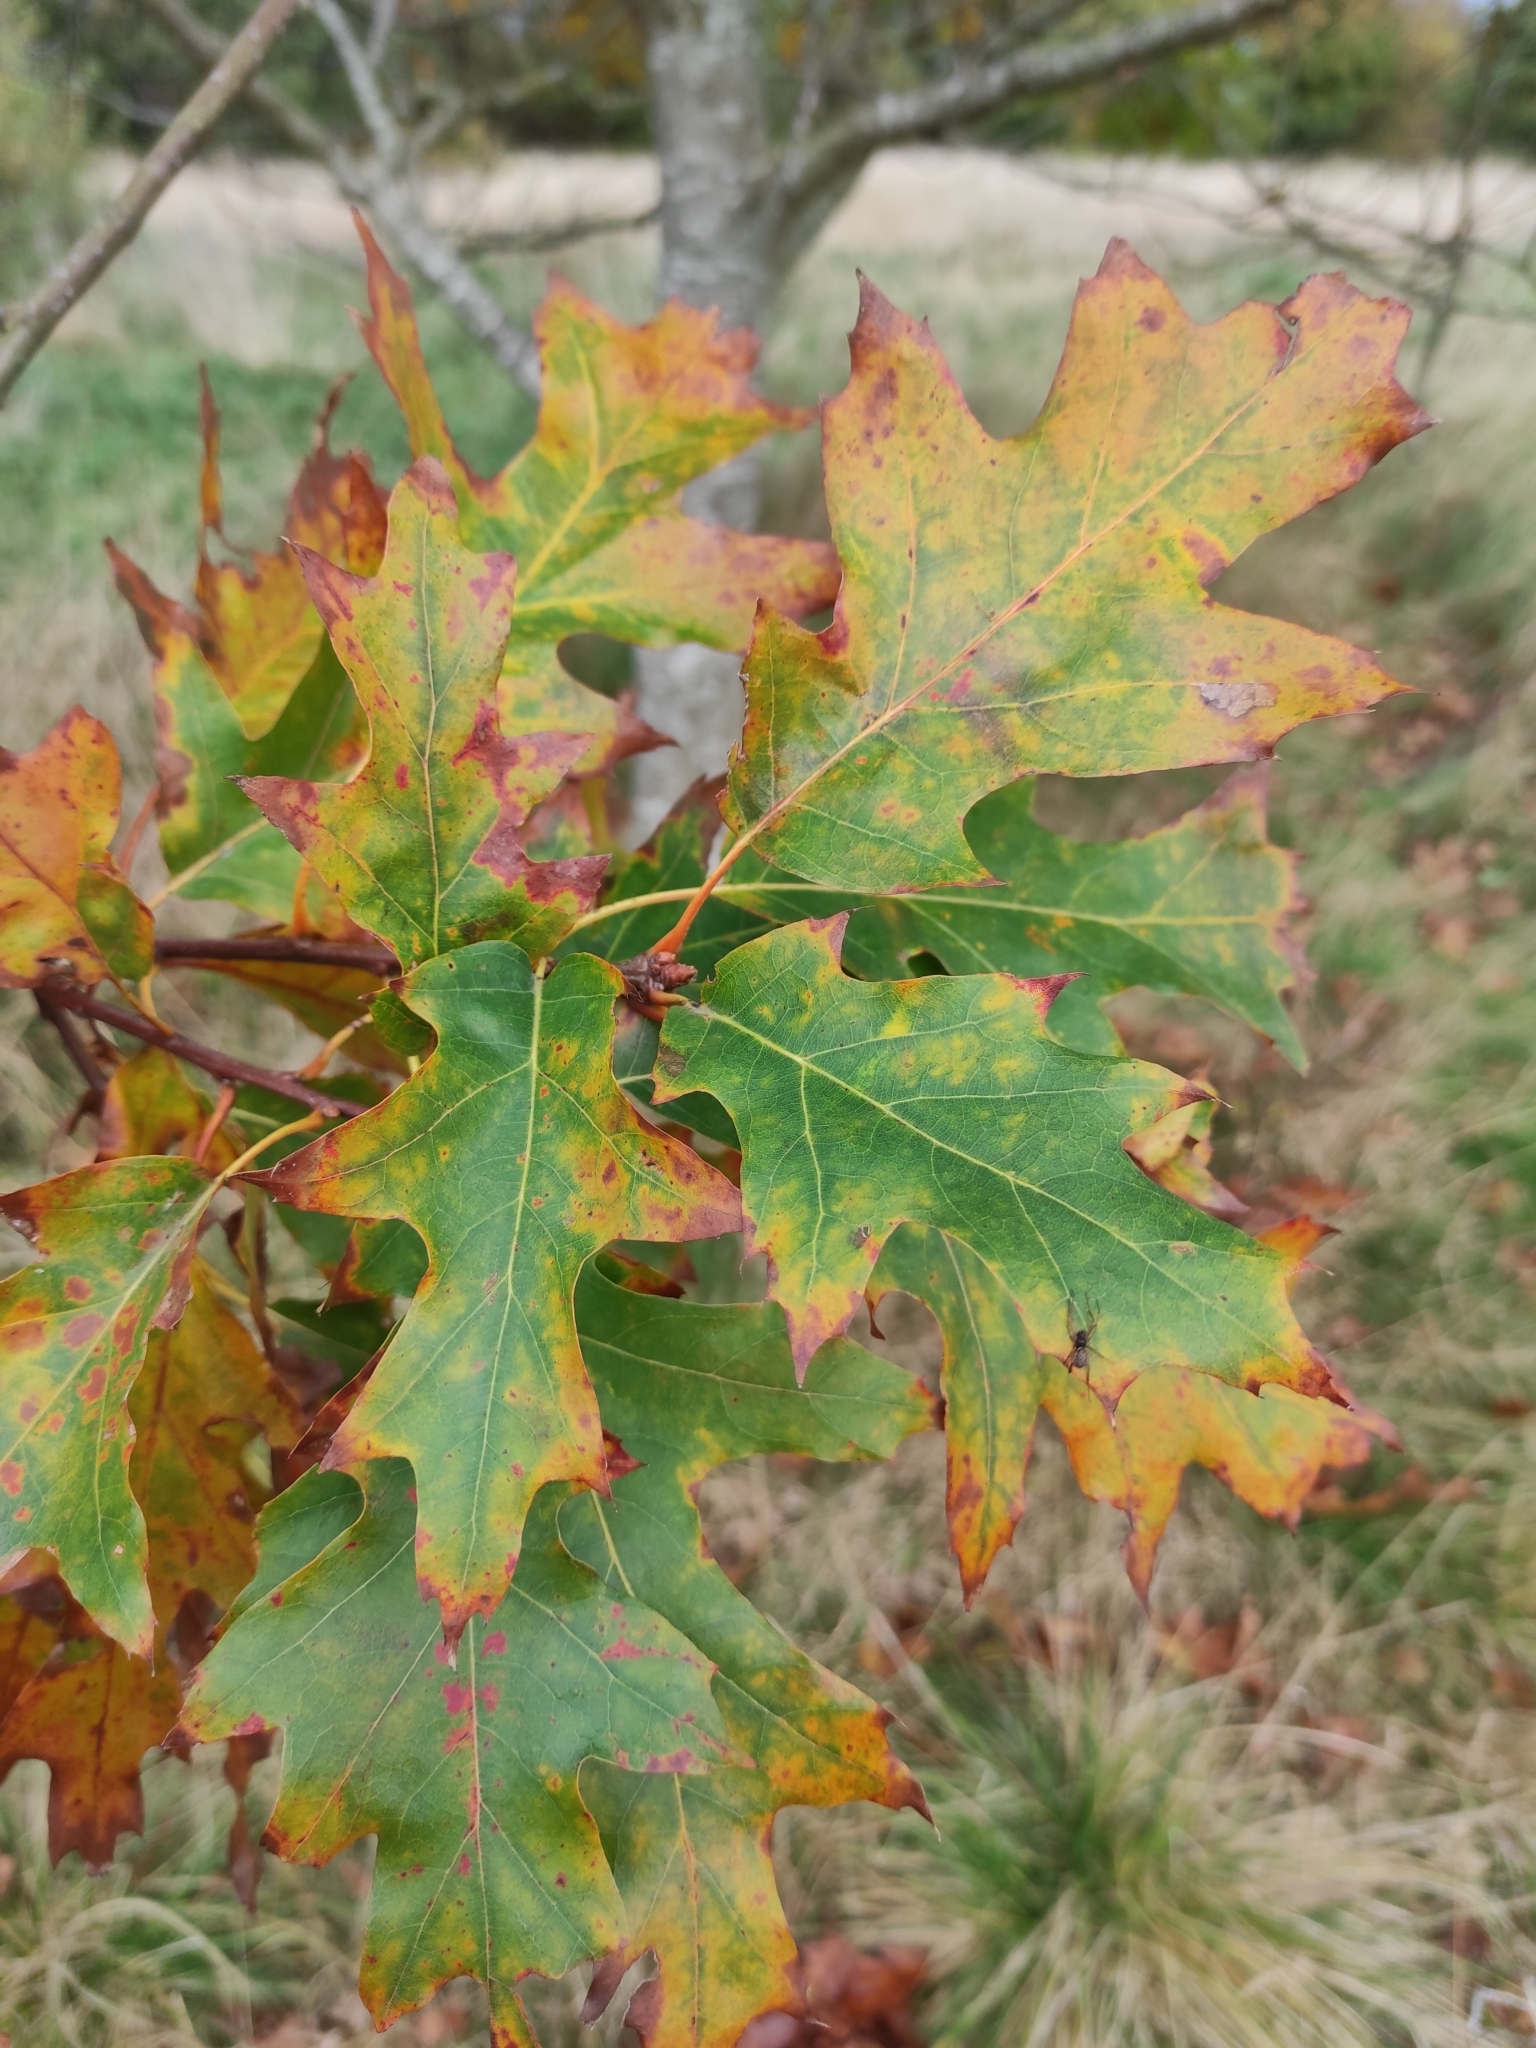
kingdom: Plantae
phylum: Tracheophyta
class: Magnoliopsida
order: Fagales
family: Fagaceae
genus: Quercus
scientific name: Quercus rubra
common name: Red oak
